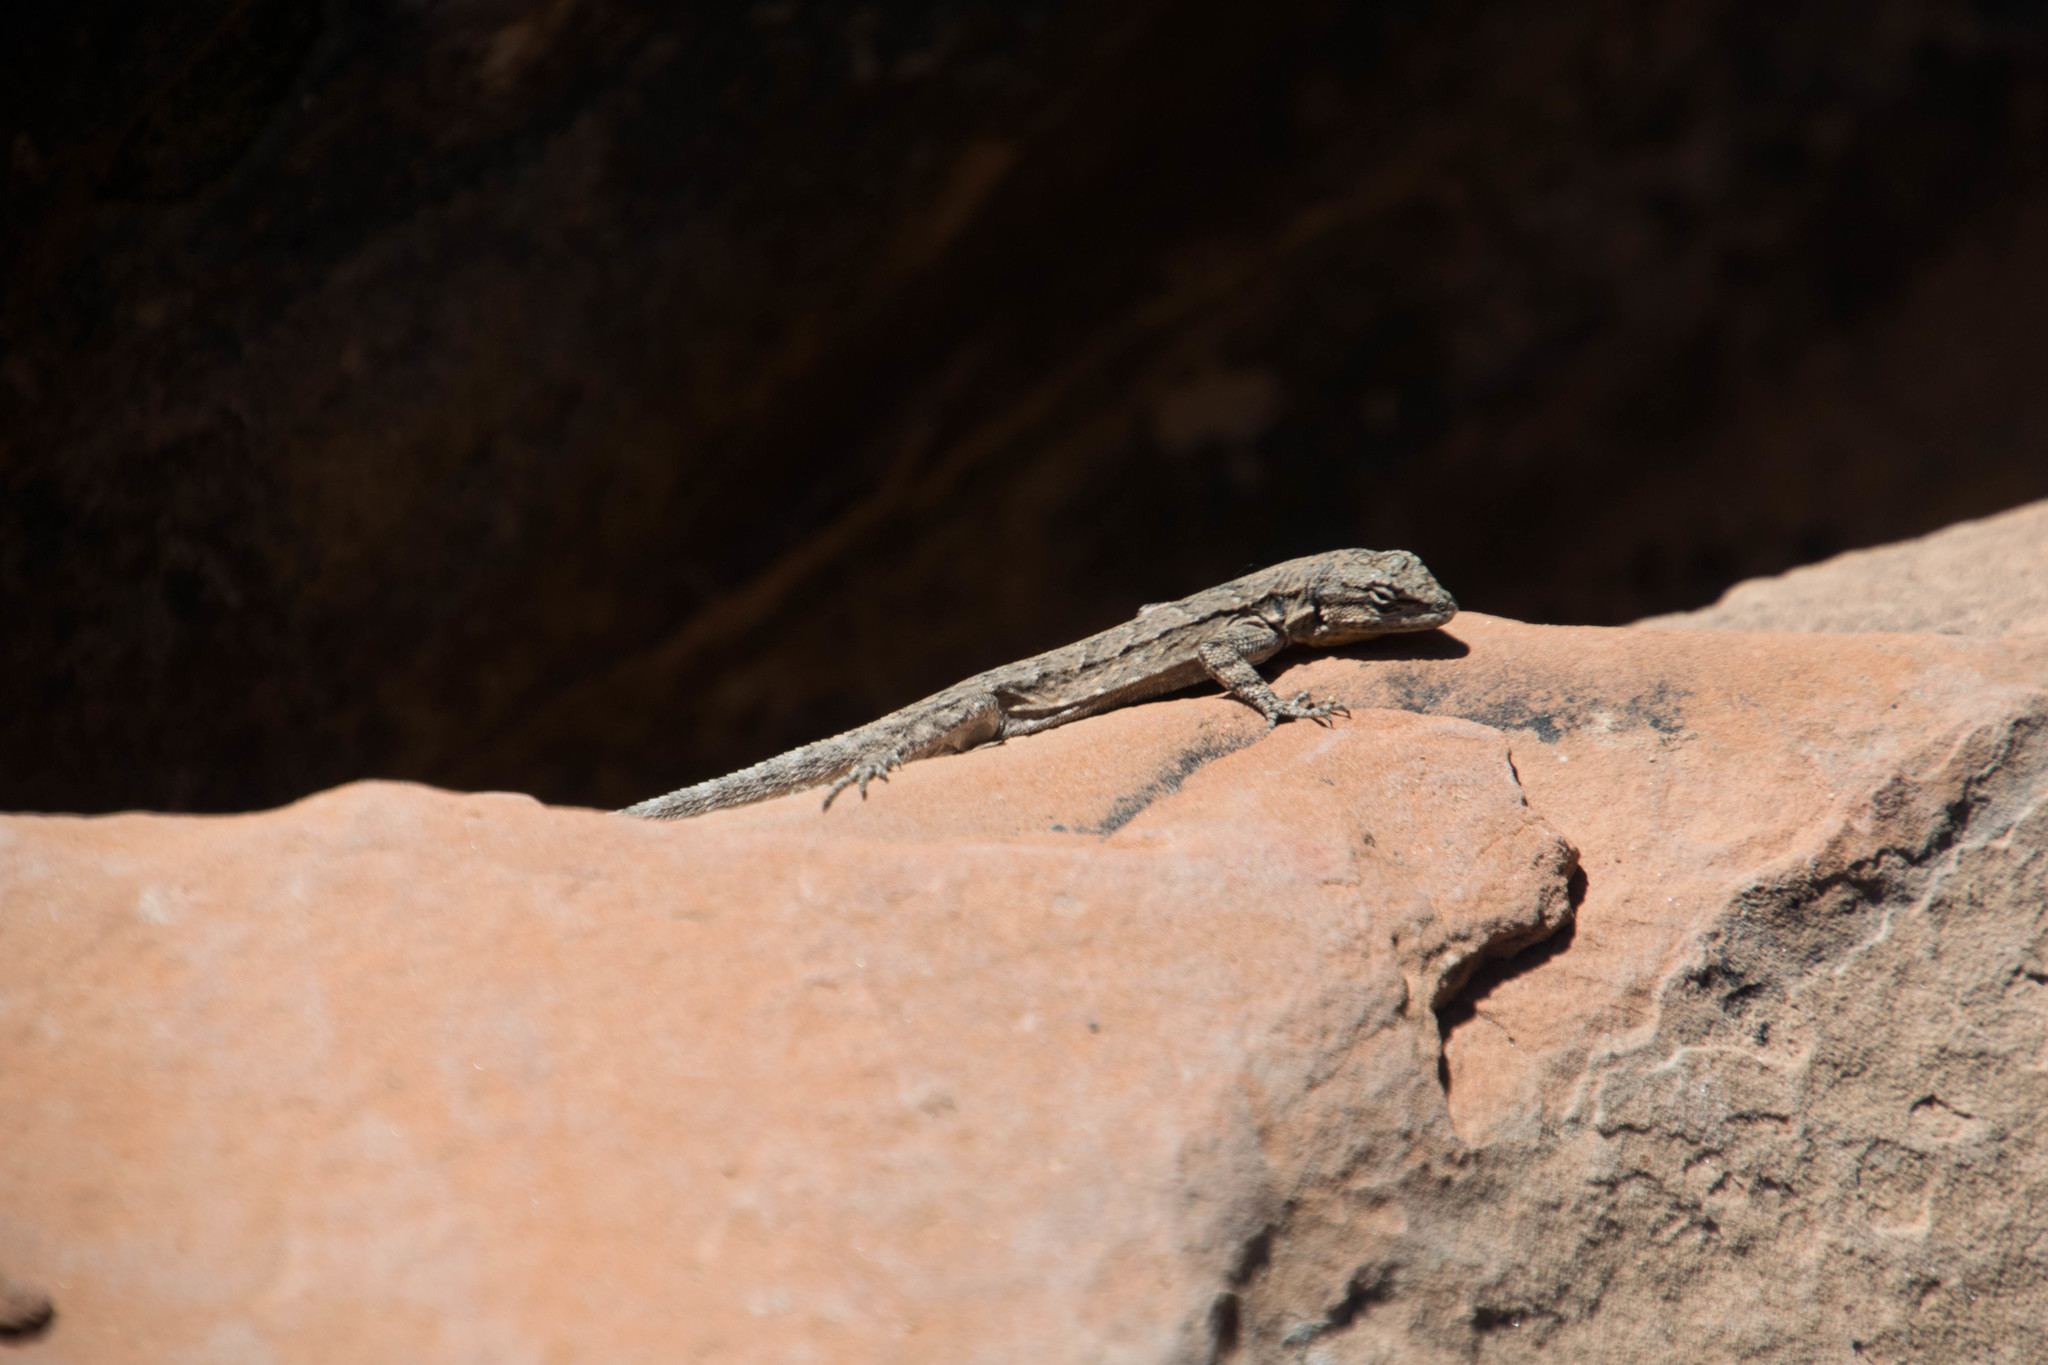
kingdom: Animalia
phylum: Chordata
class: Squamata
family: Phrynosomatidae
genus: Urosaurus
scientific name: Urosaurus ornatus
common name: Ornate tree lizard
